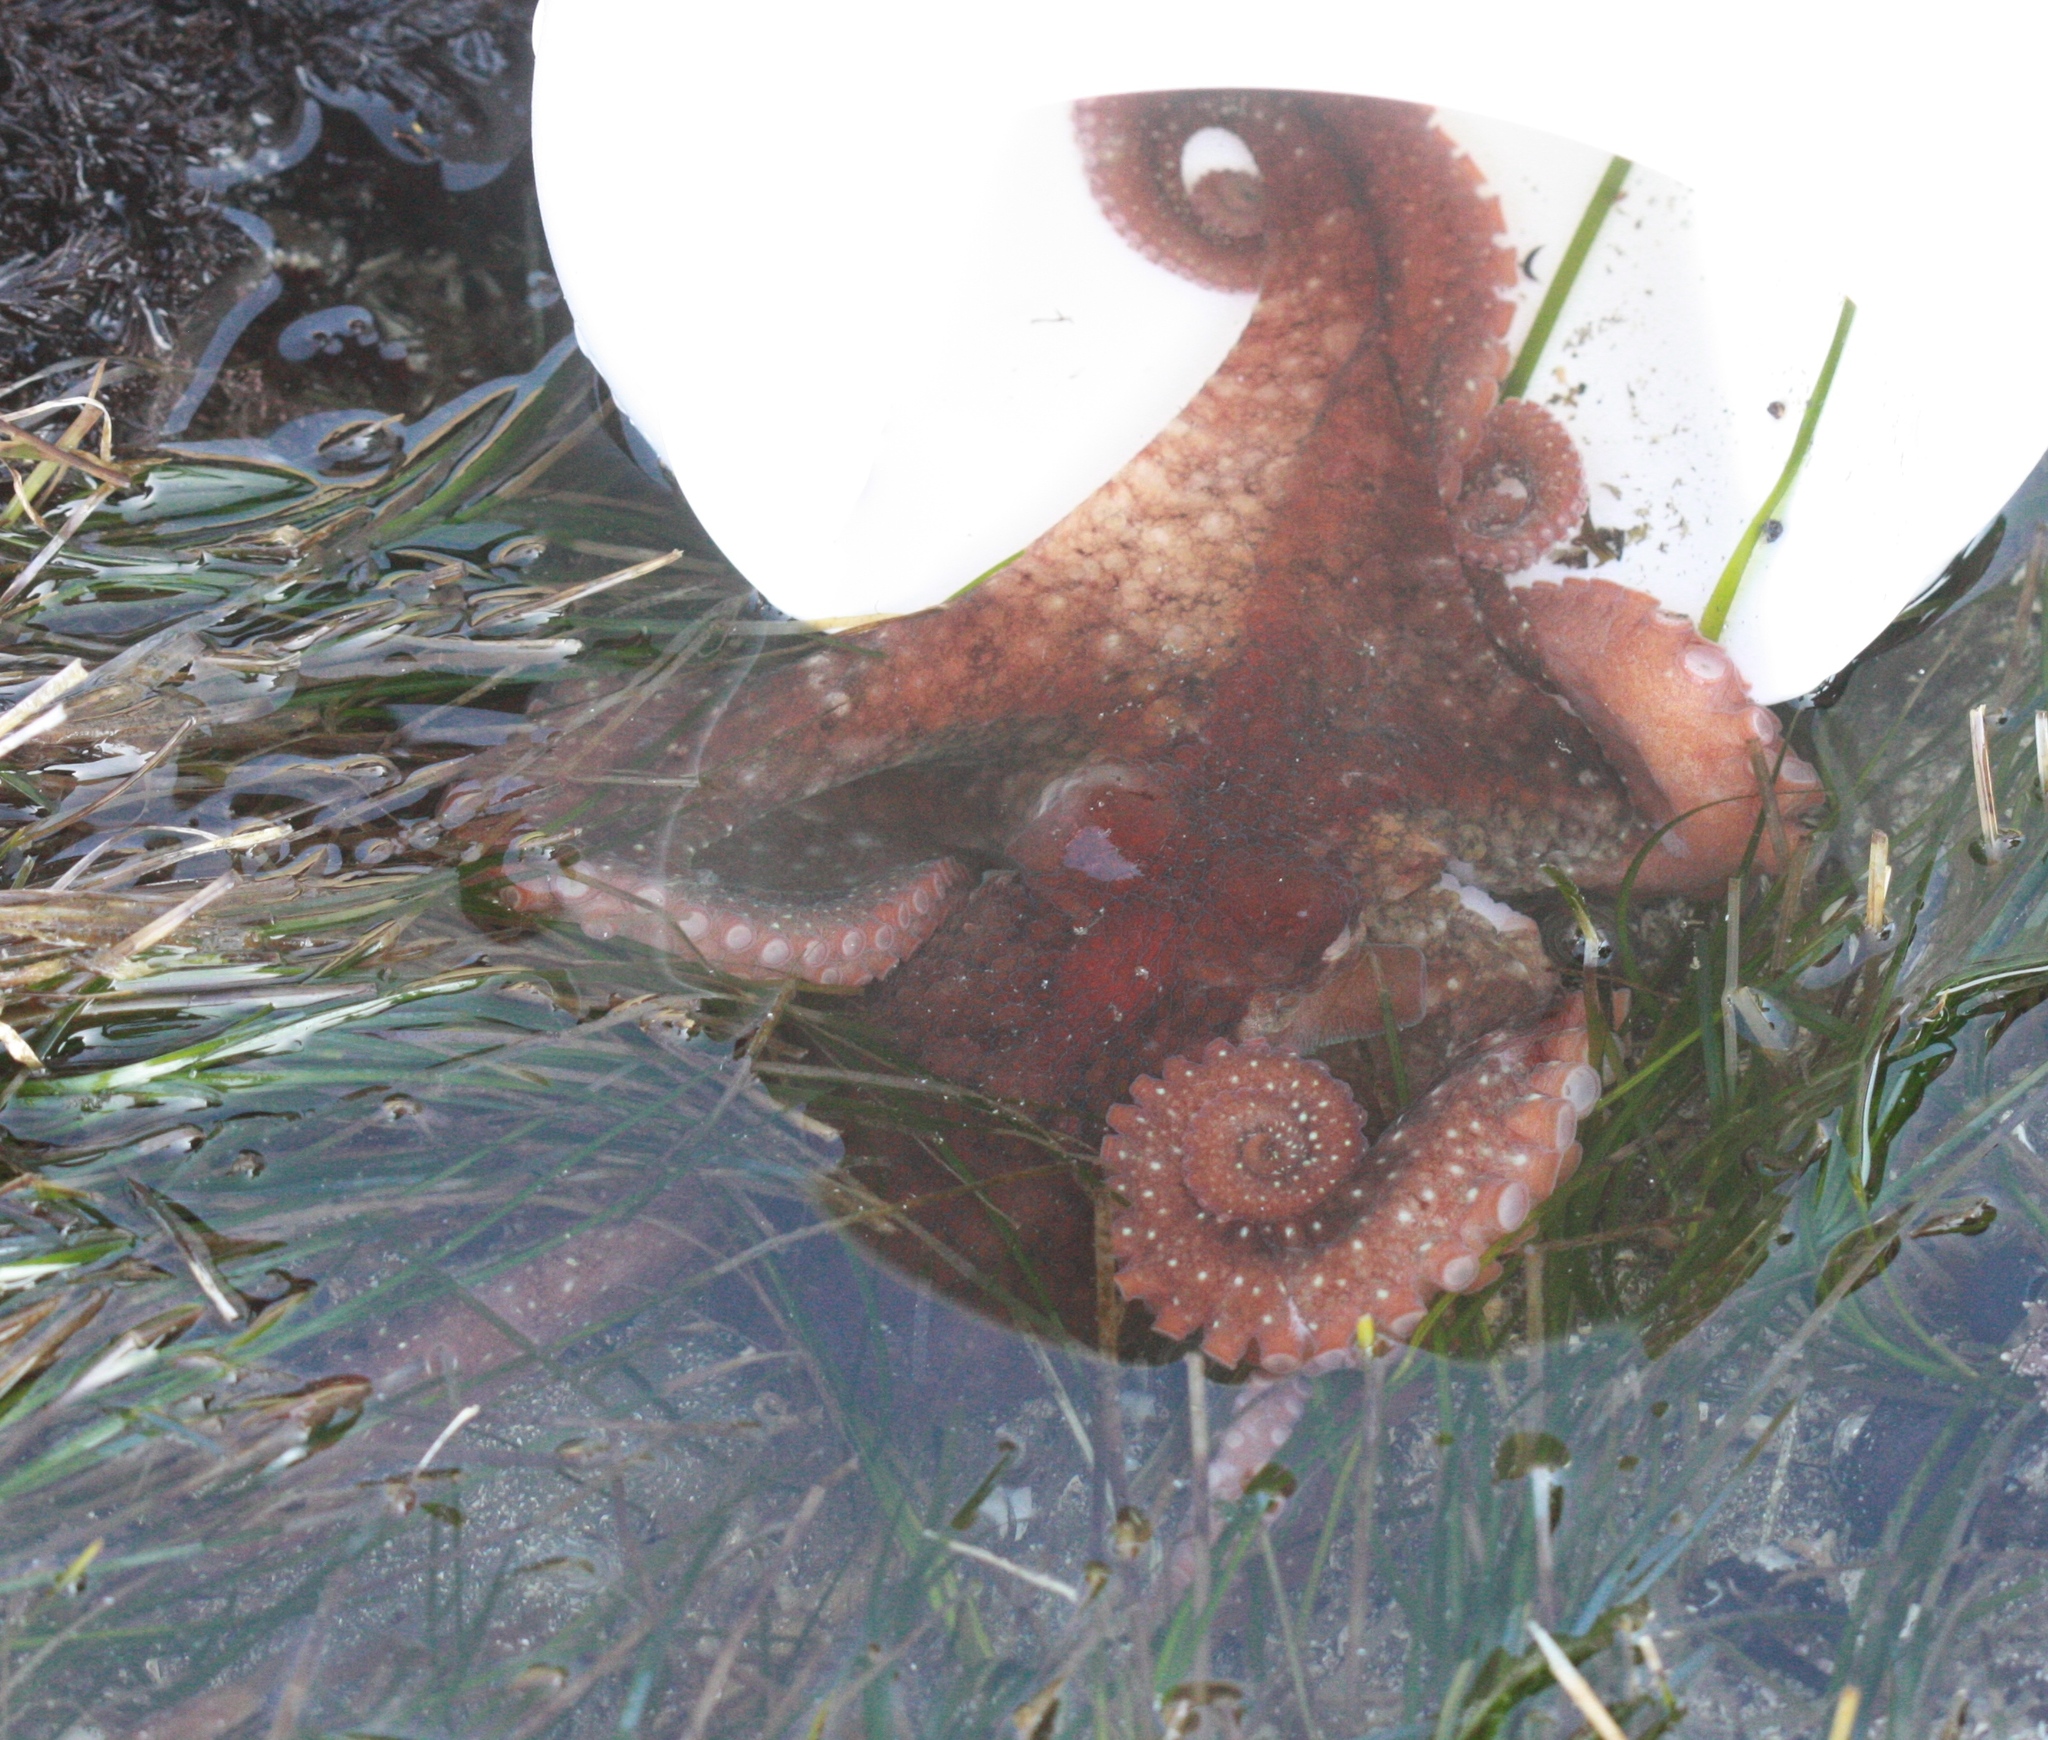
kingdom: Animalia
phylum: Mollusca
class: Cephalopoda
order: Octopoda
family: Octopodidae
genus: Octopus
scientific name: Octopus rubescens
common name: East pacific red octopus
